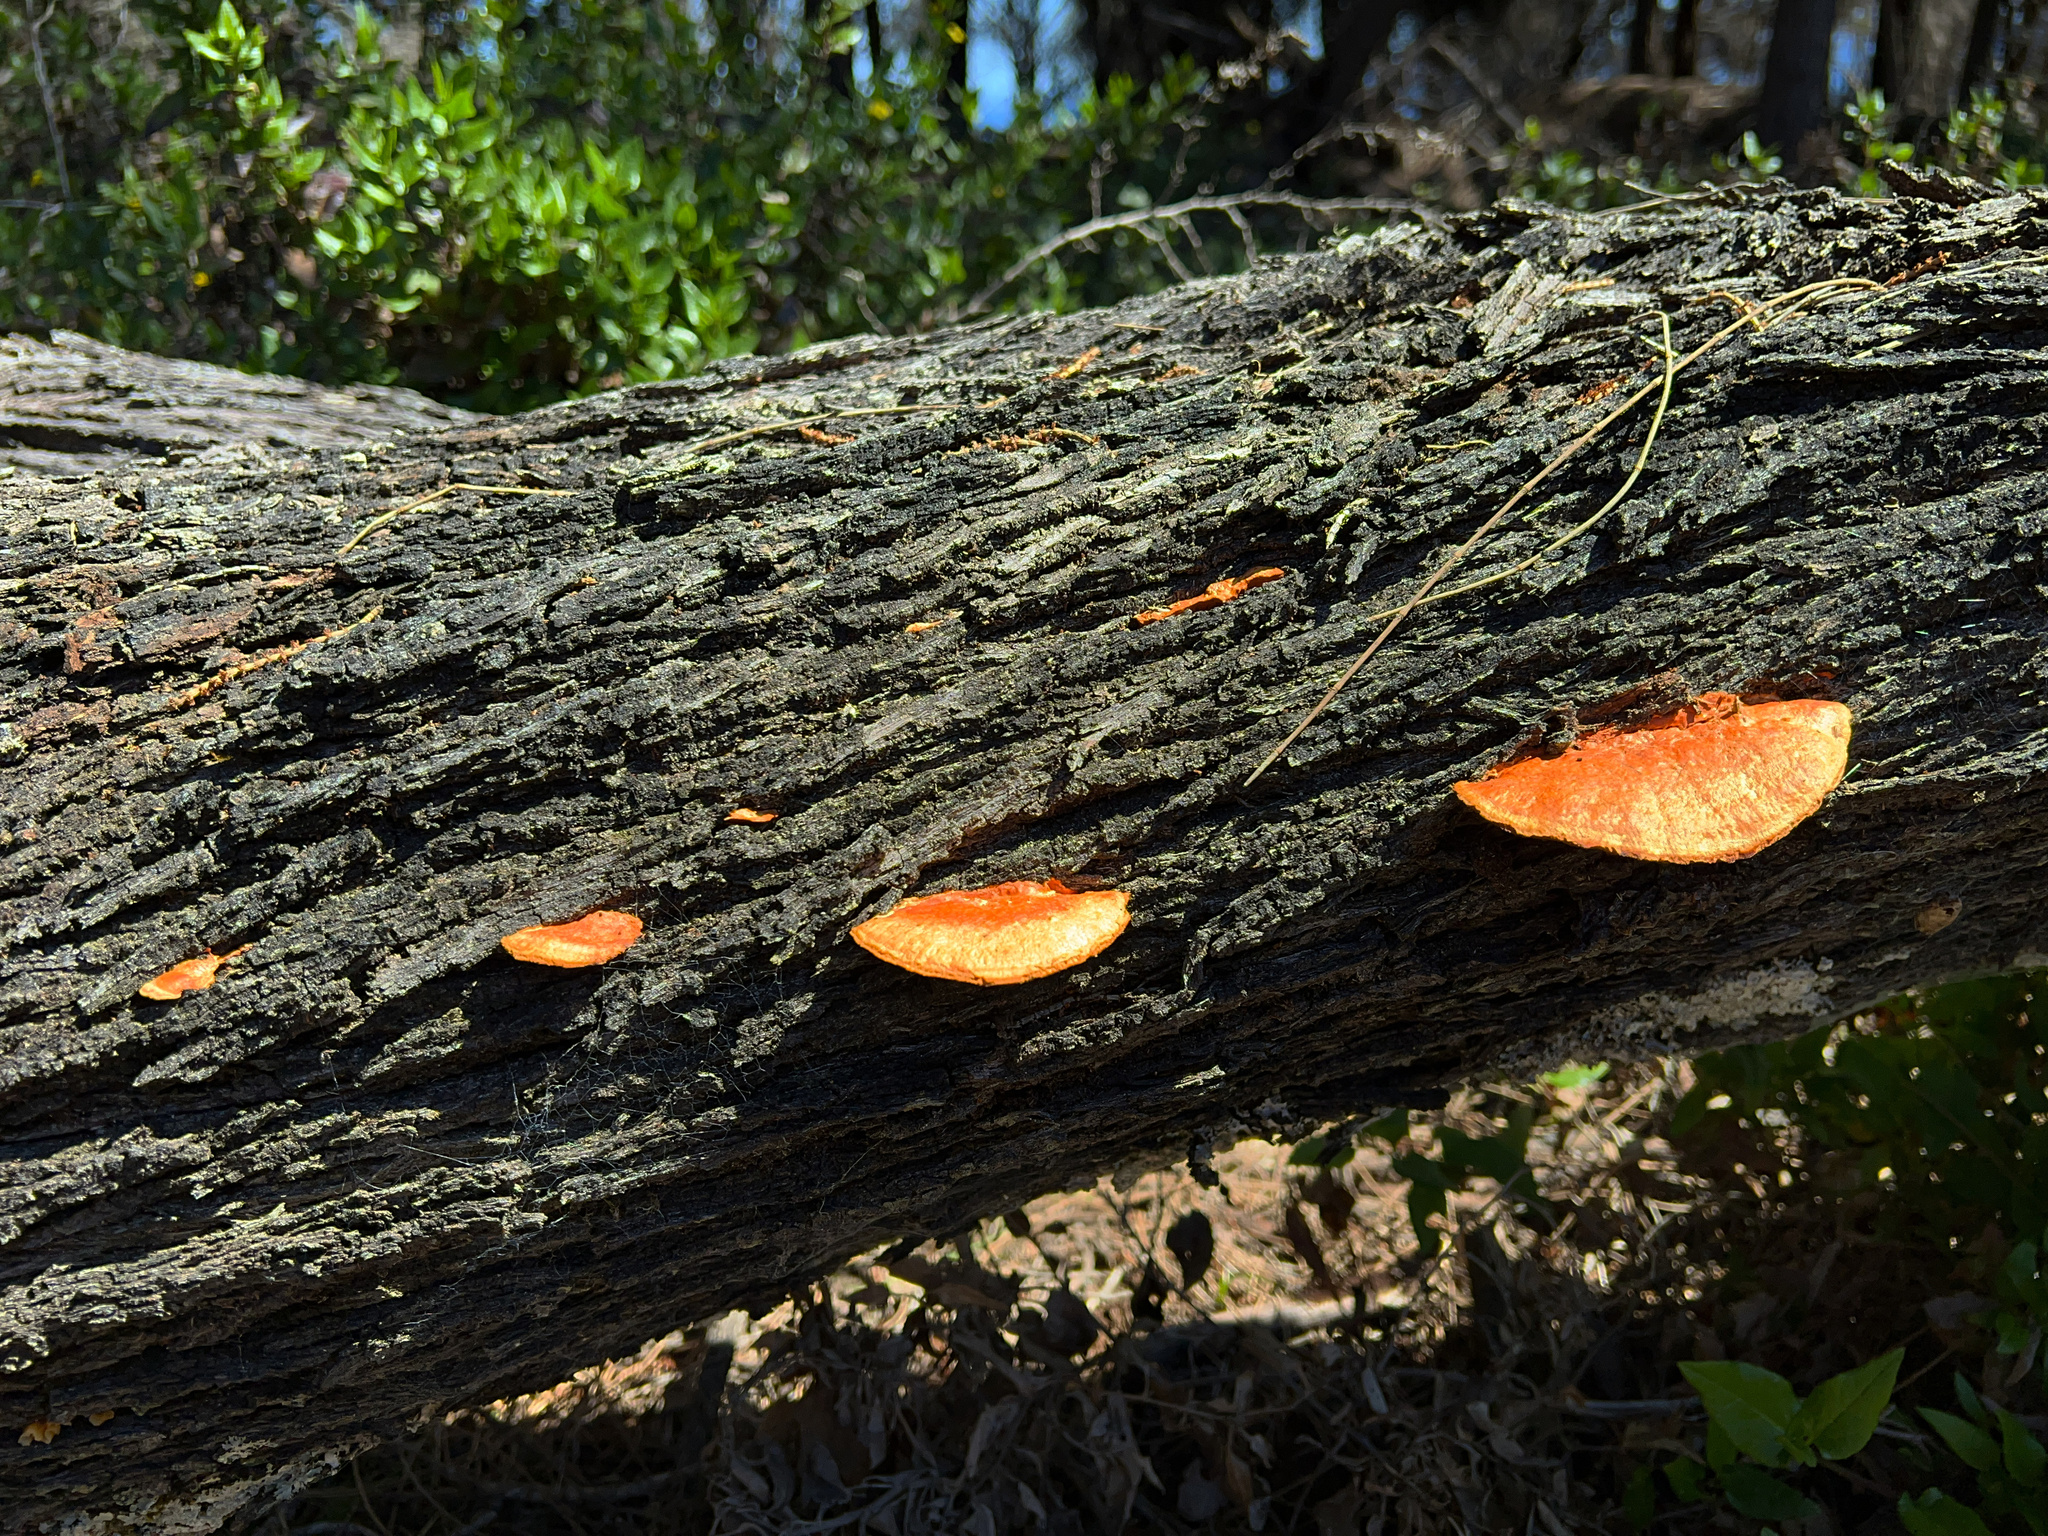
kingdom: Fungi
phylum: Basidiomycota
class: Agaricomycetes
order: Polyporales
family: Polyporaceae
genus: Trametes
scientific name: Trametes coccinea
